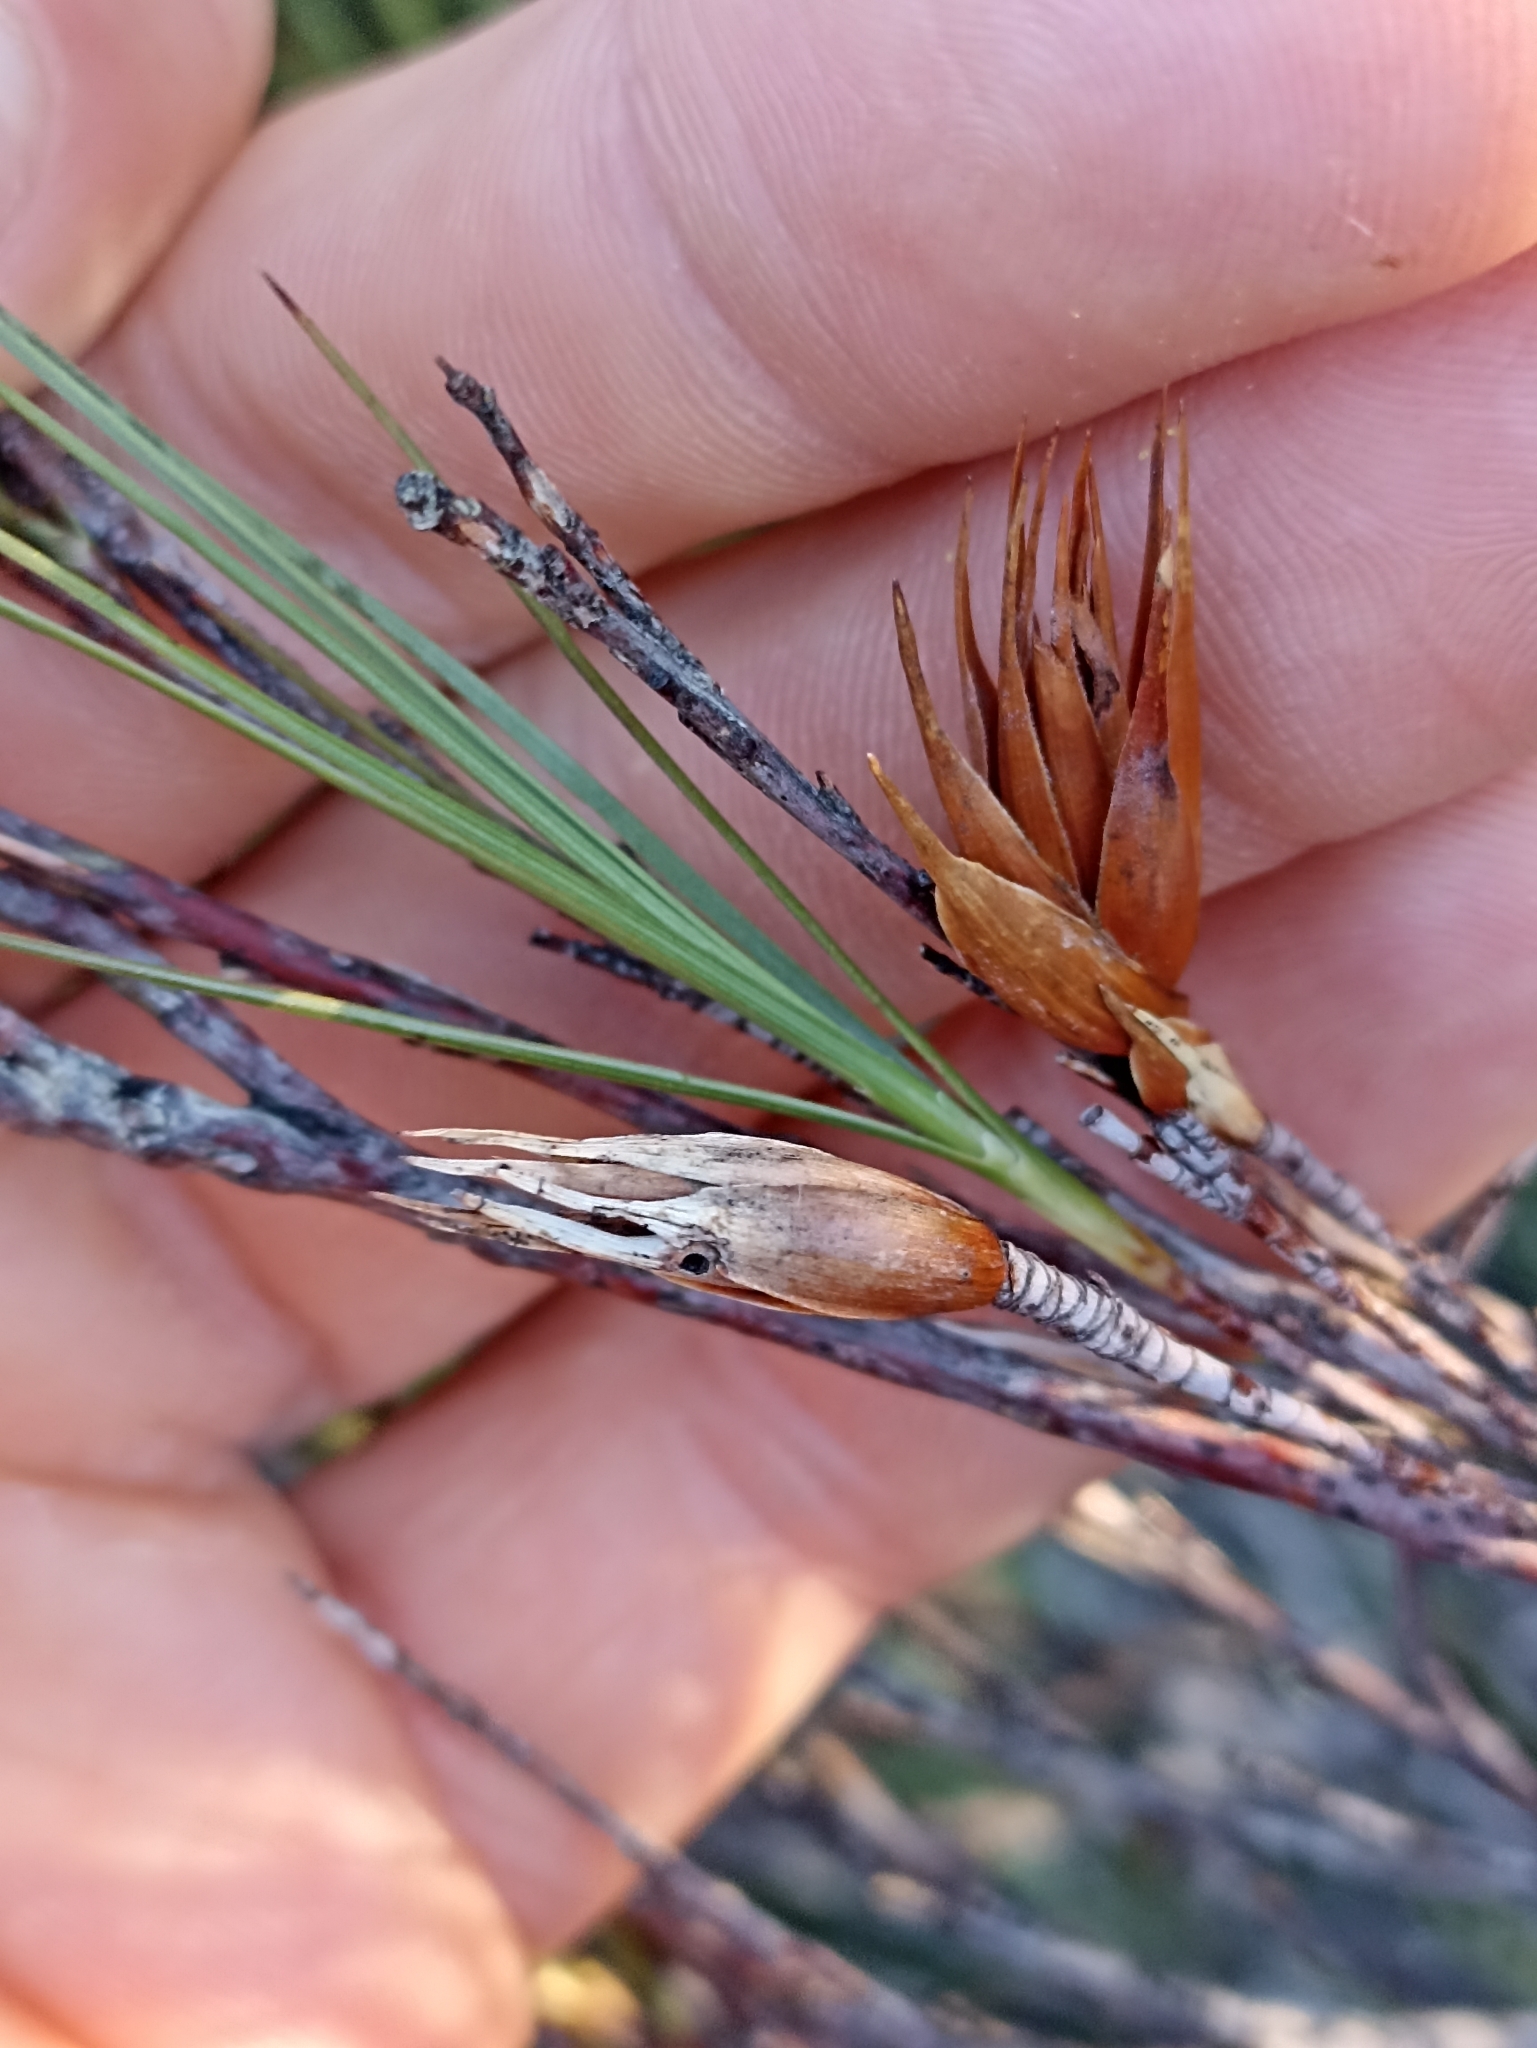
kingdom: Plantae
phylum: Tracheophyta
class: Magnoliopsida
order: Ericales
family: Ericaceae
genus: Dracophyllum
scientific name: Dracophyllum filifolium
